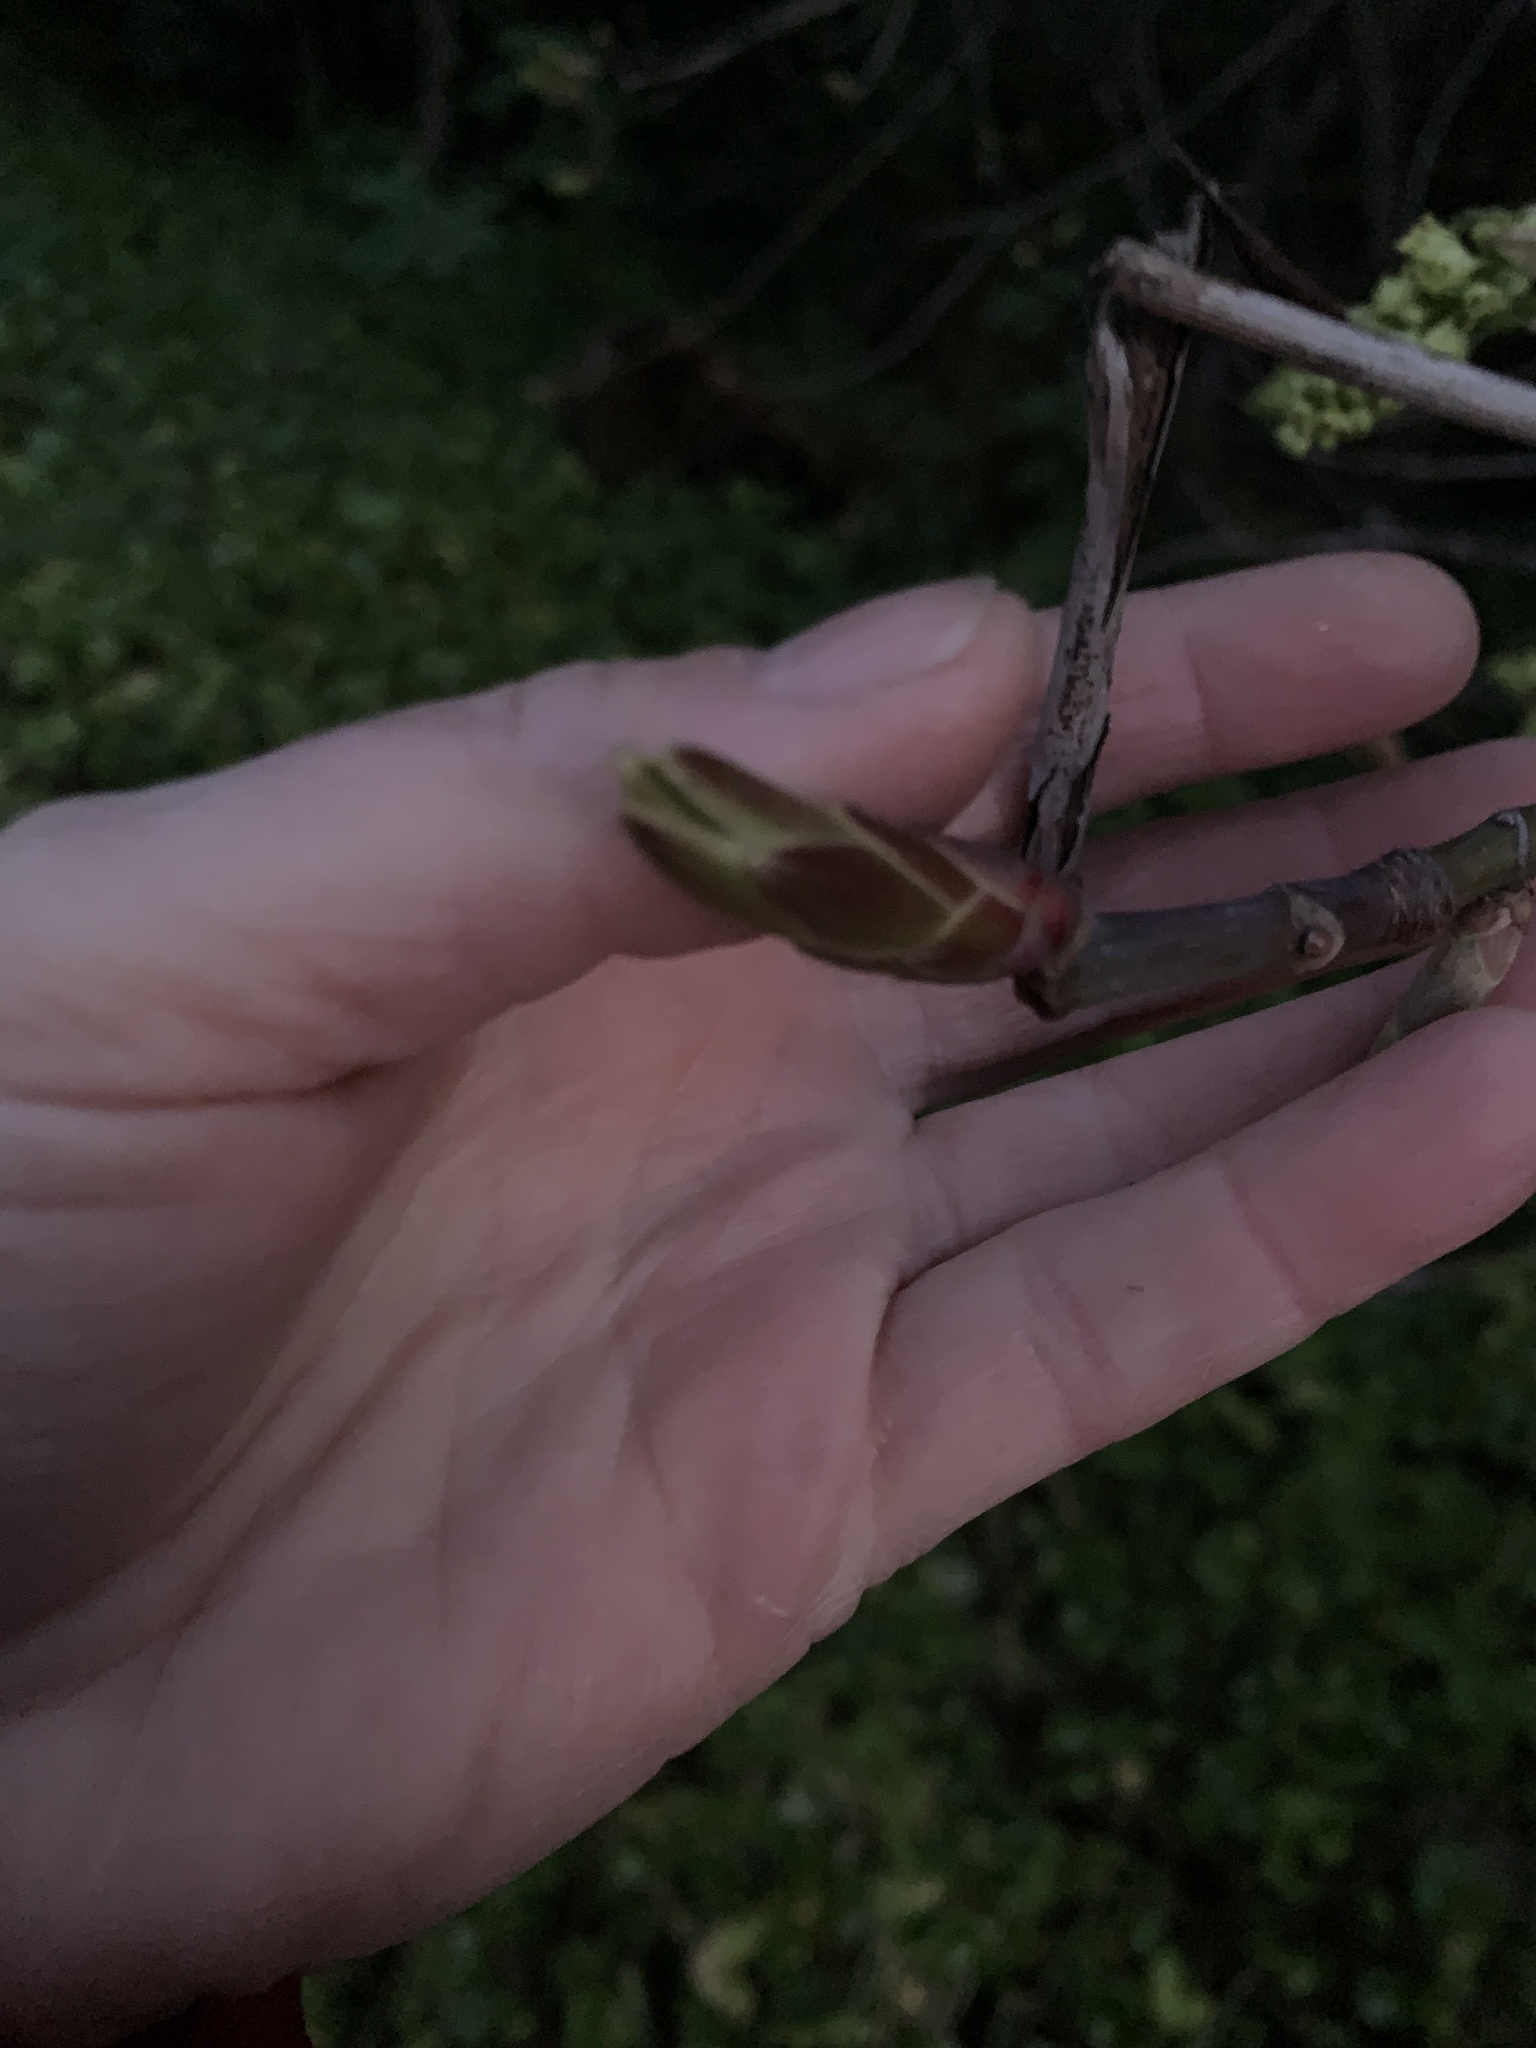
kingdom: Plantae
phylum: Tracheophyta
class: Magnoliopsida
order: Sapindales
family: Sapindaceae
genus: Acer
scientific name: Acer macrophyllum
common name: Oregon maple
